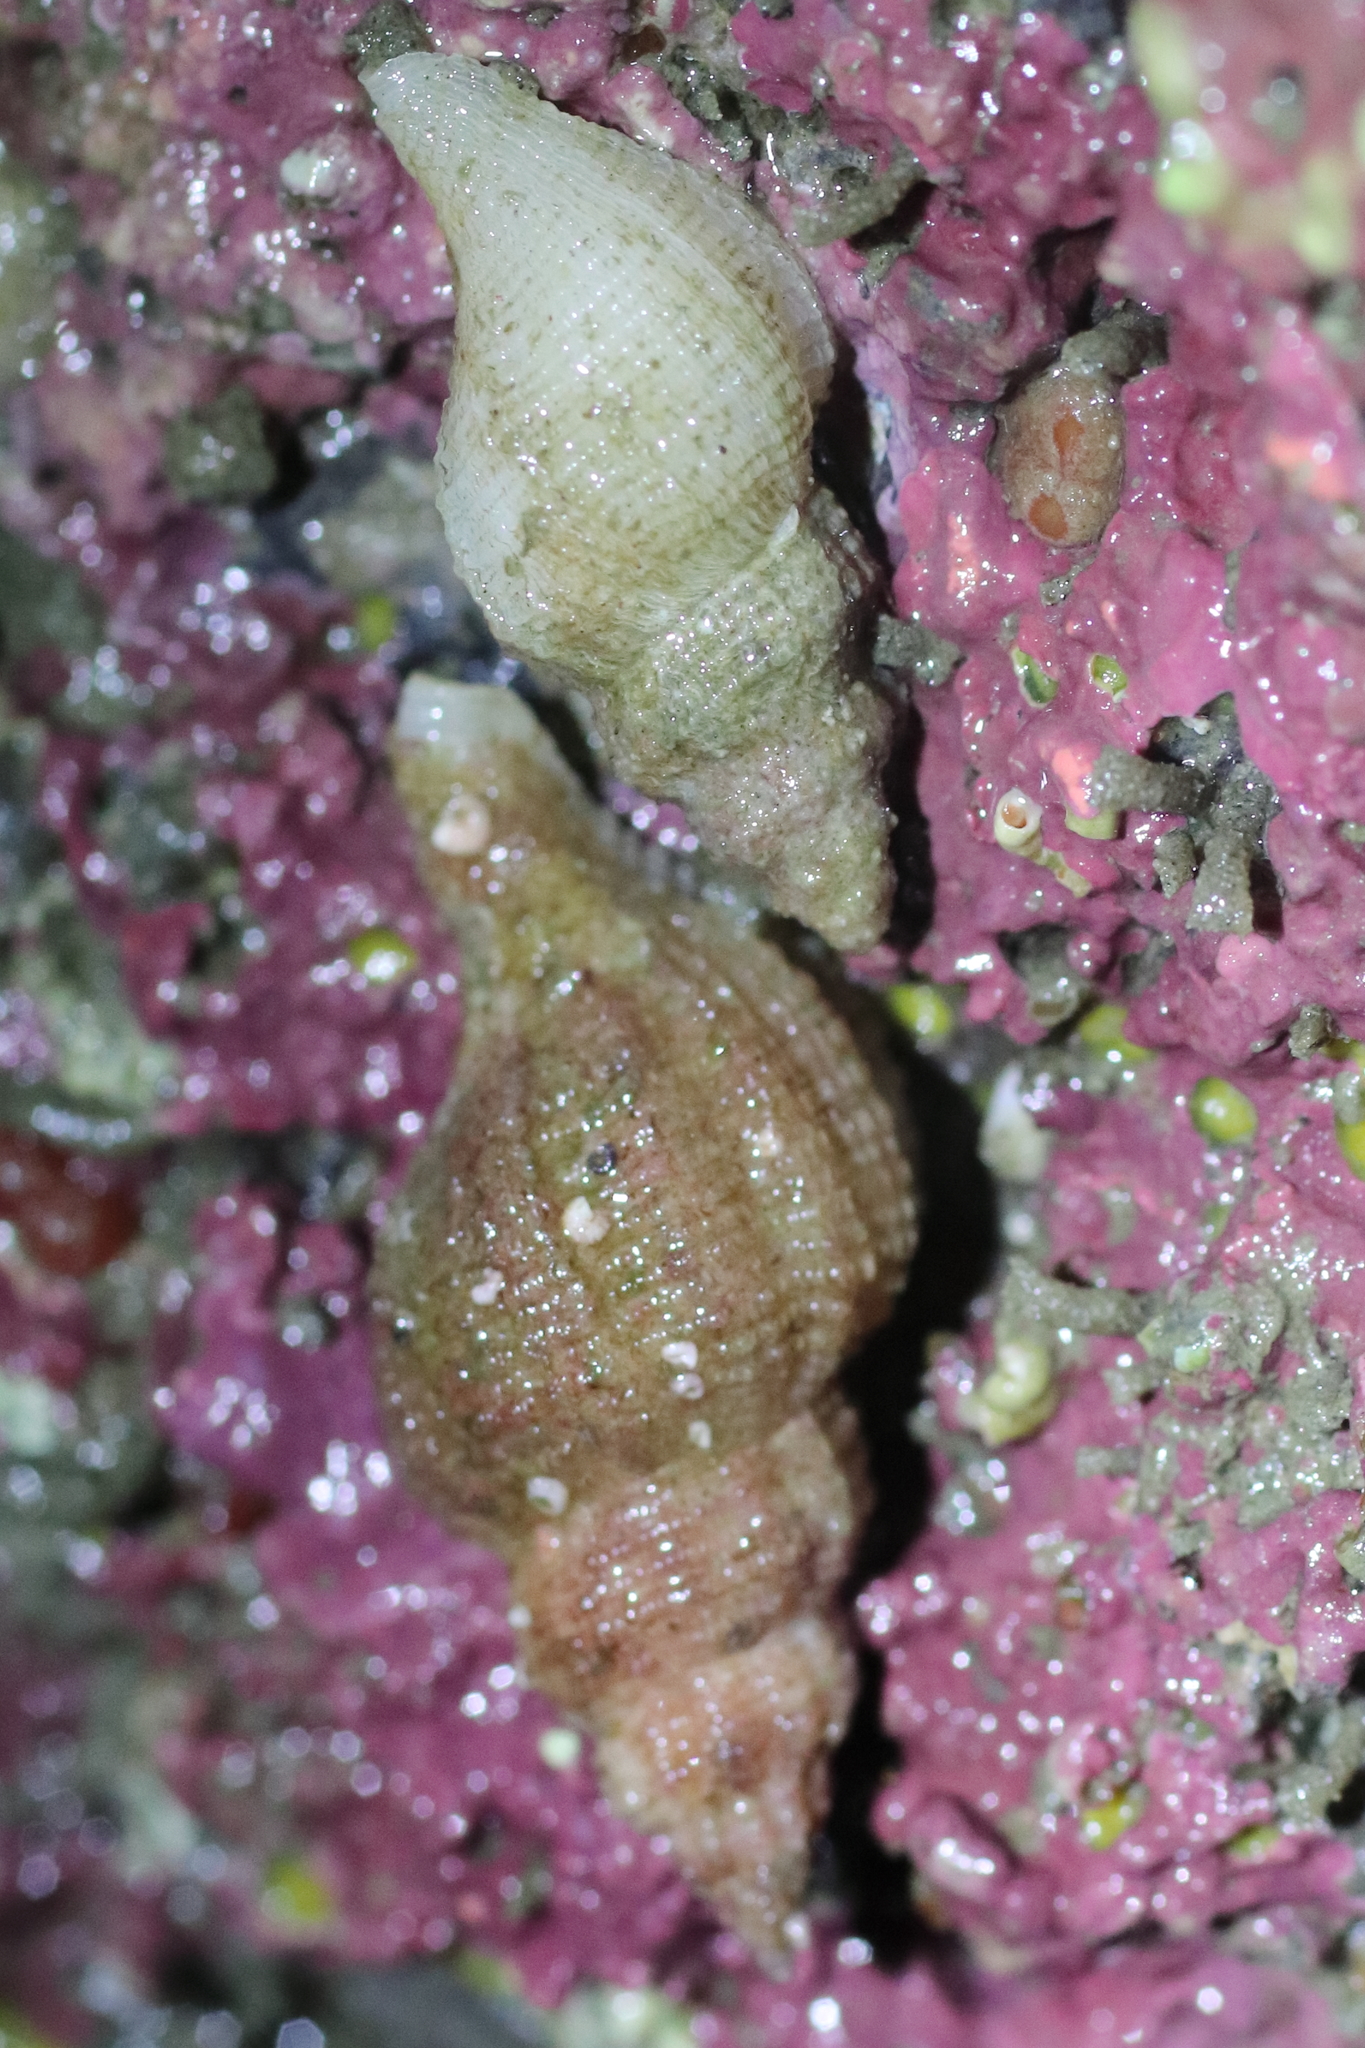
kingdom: Animalia
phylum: Mollusca
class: Gastropoda
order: Neogastropoda
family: Muricidae
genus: Scabrotrophon
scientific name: Scabrotrophon maltzani
